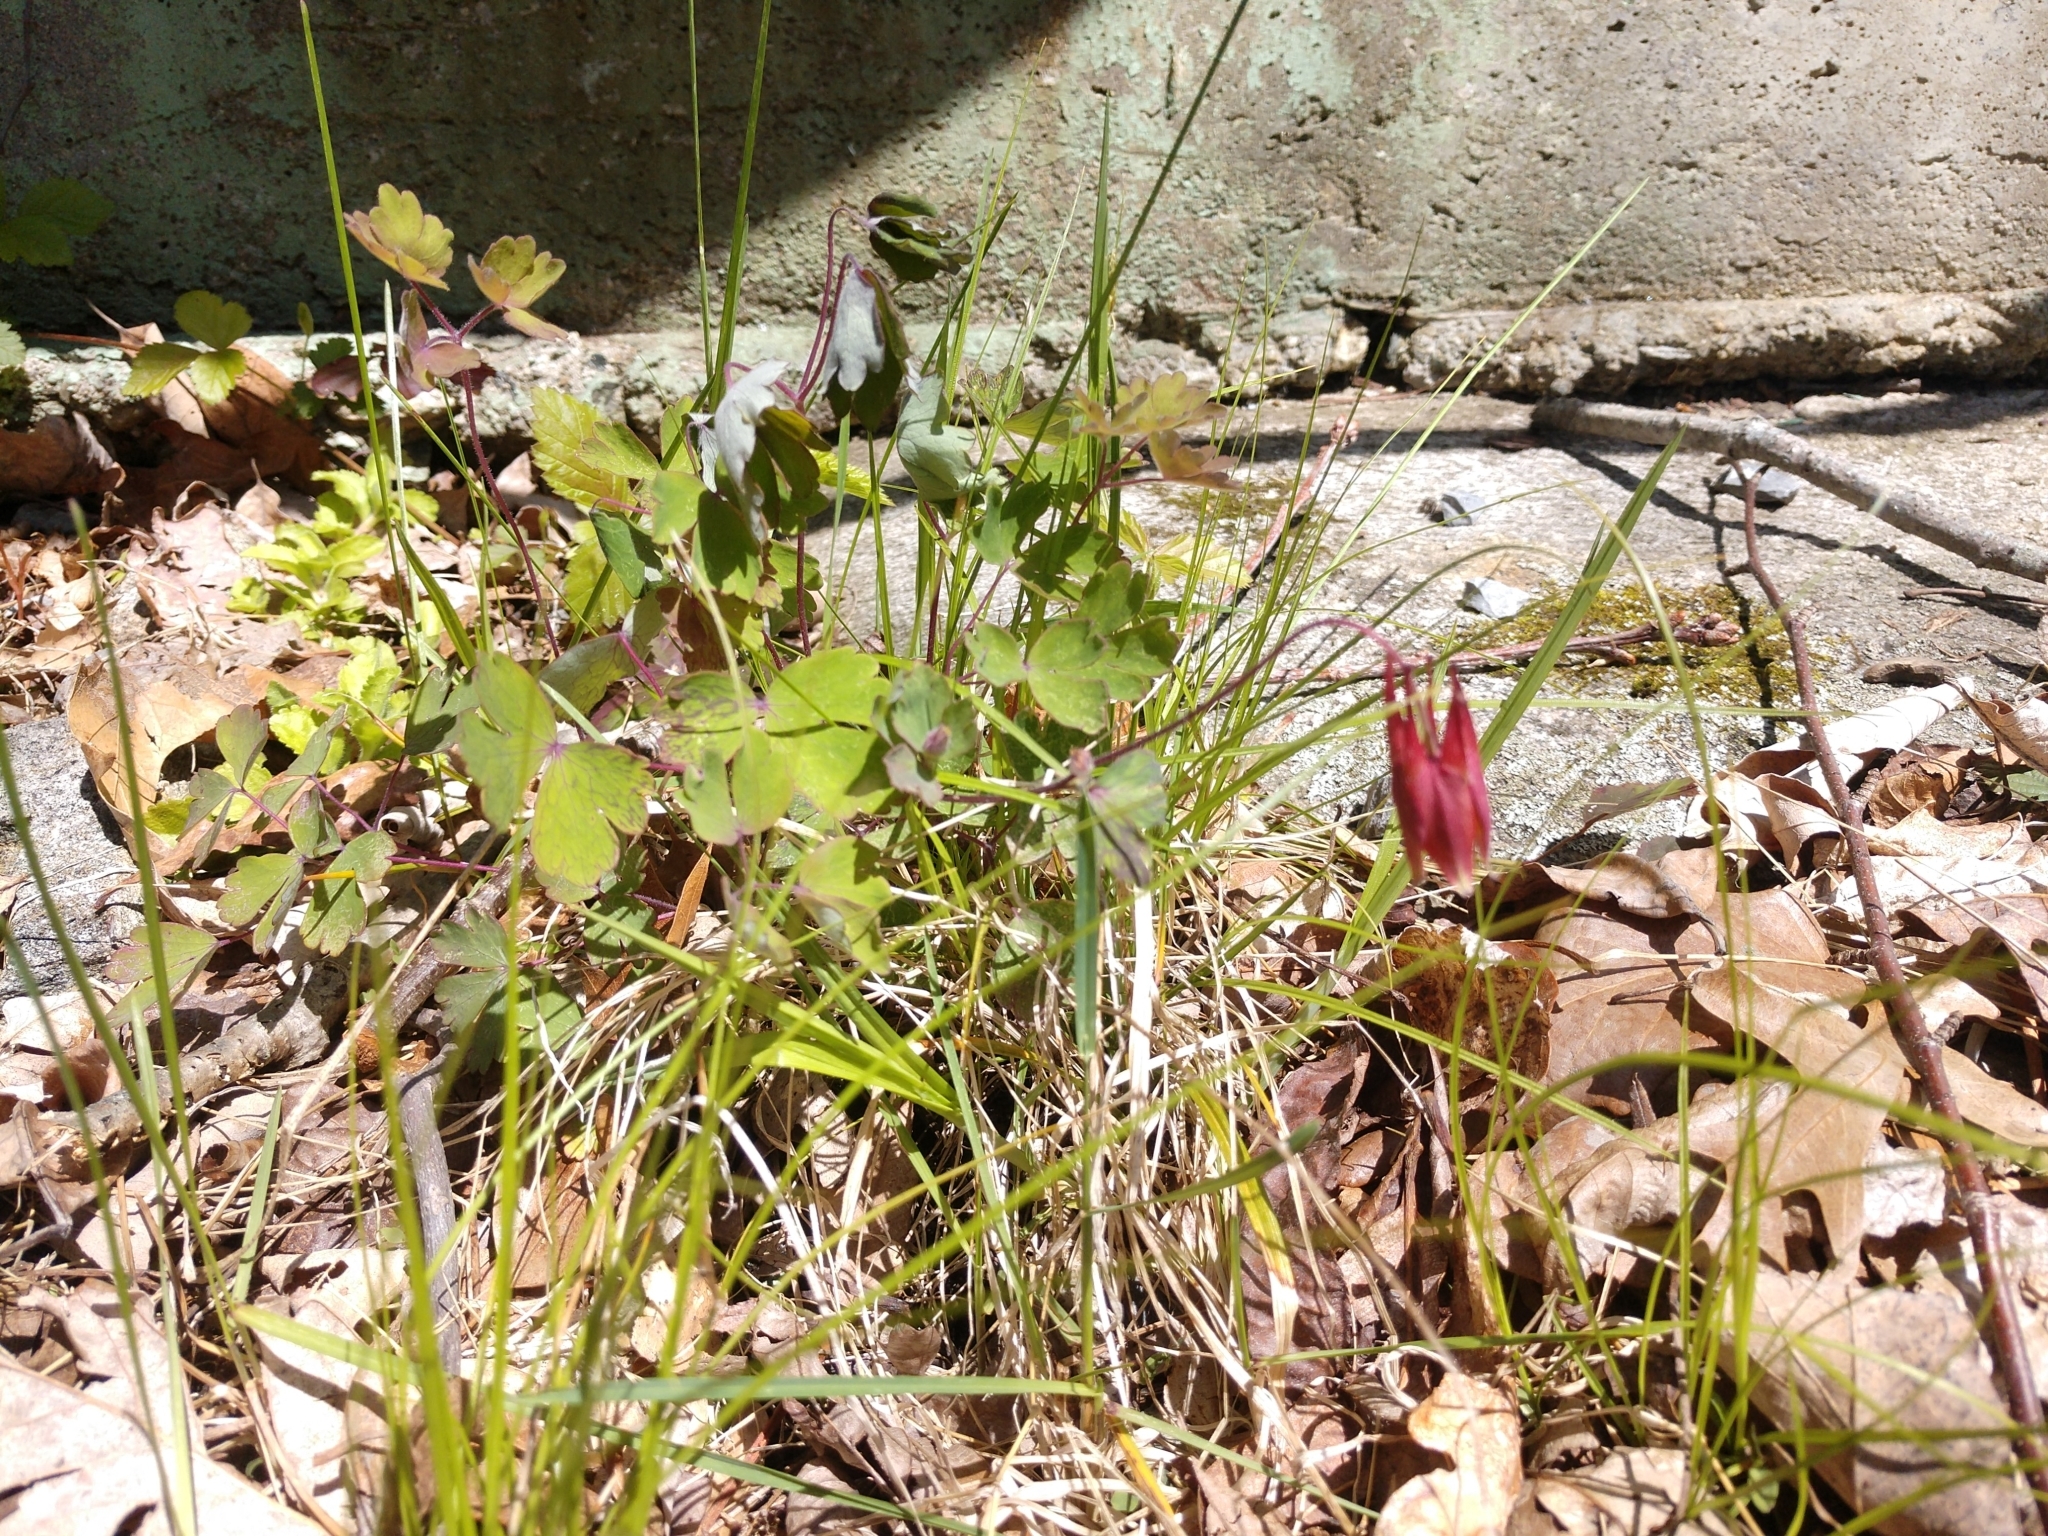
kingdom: Plantae
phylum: Tracheophyta
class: Magnoliopsida
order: Ranunculales
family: Ranunculaceae
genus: Aquilegia
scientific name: Aquilegia canadensis
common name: American columbine
